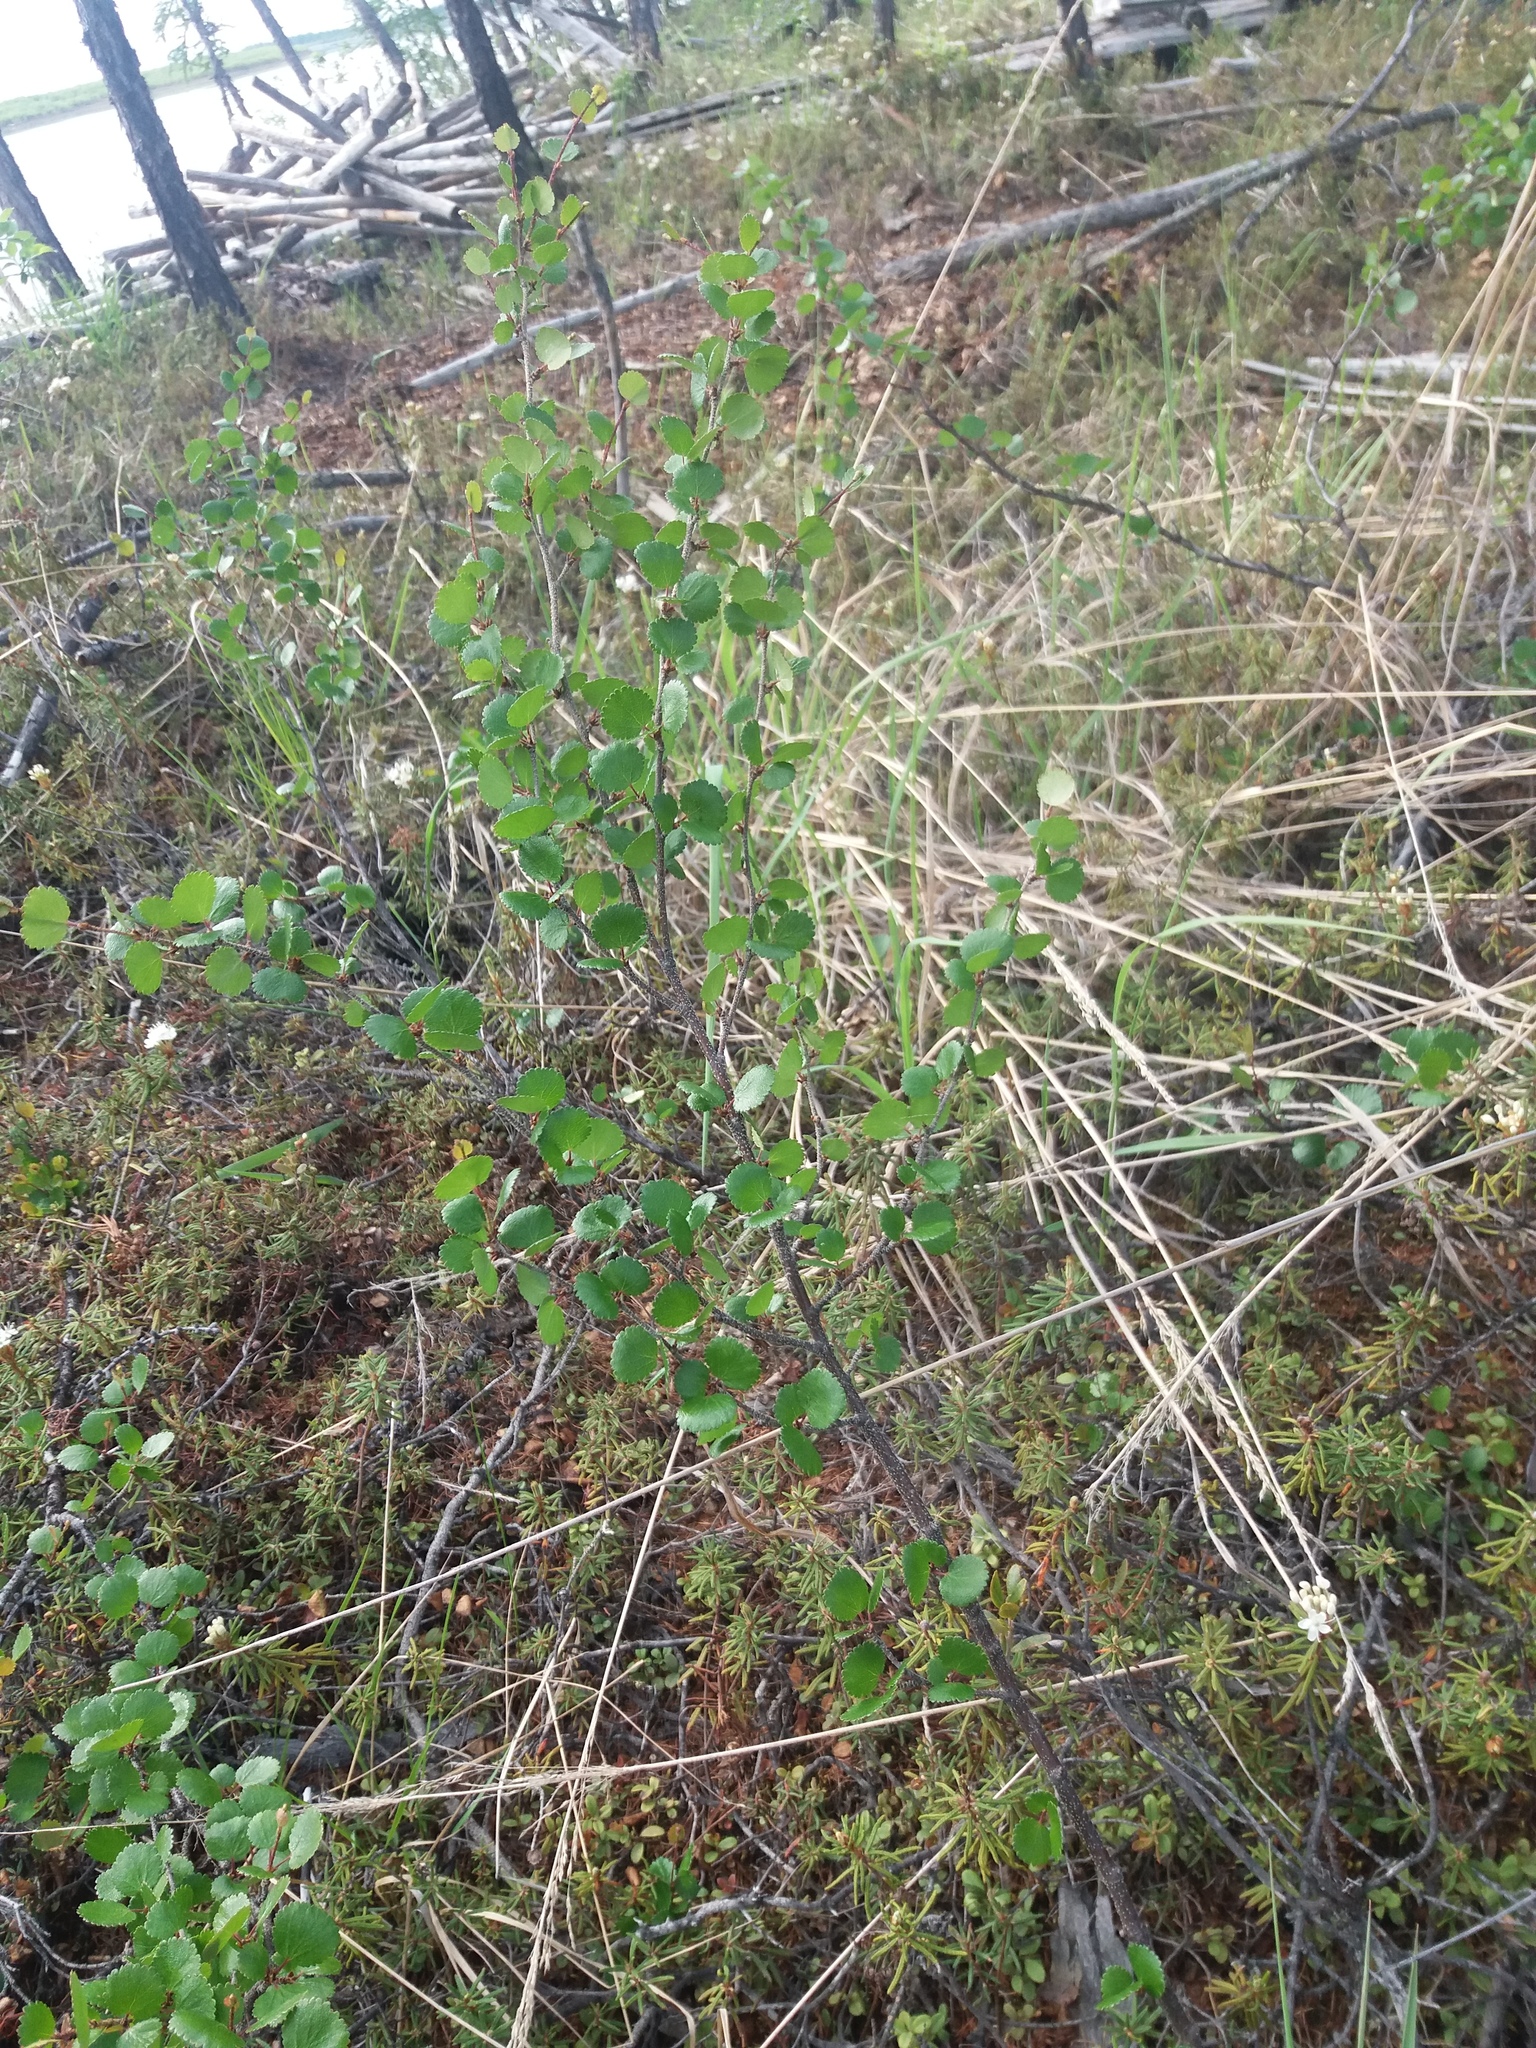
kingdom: Plantae
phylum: Tracheophyta
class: Magnoliopsida
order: Fagales
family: Betulaceae
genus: Betula
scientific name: Betula nana
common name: Arctic dwarf birch
